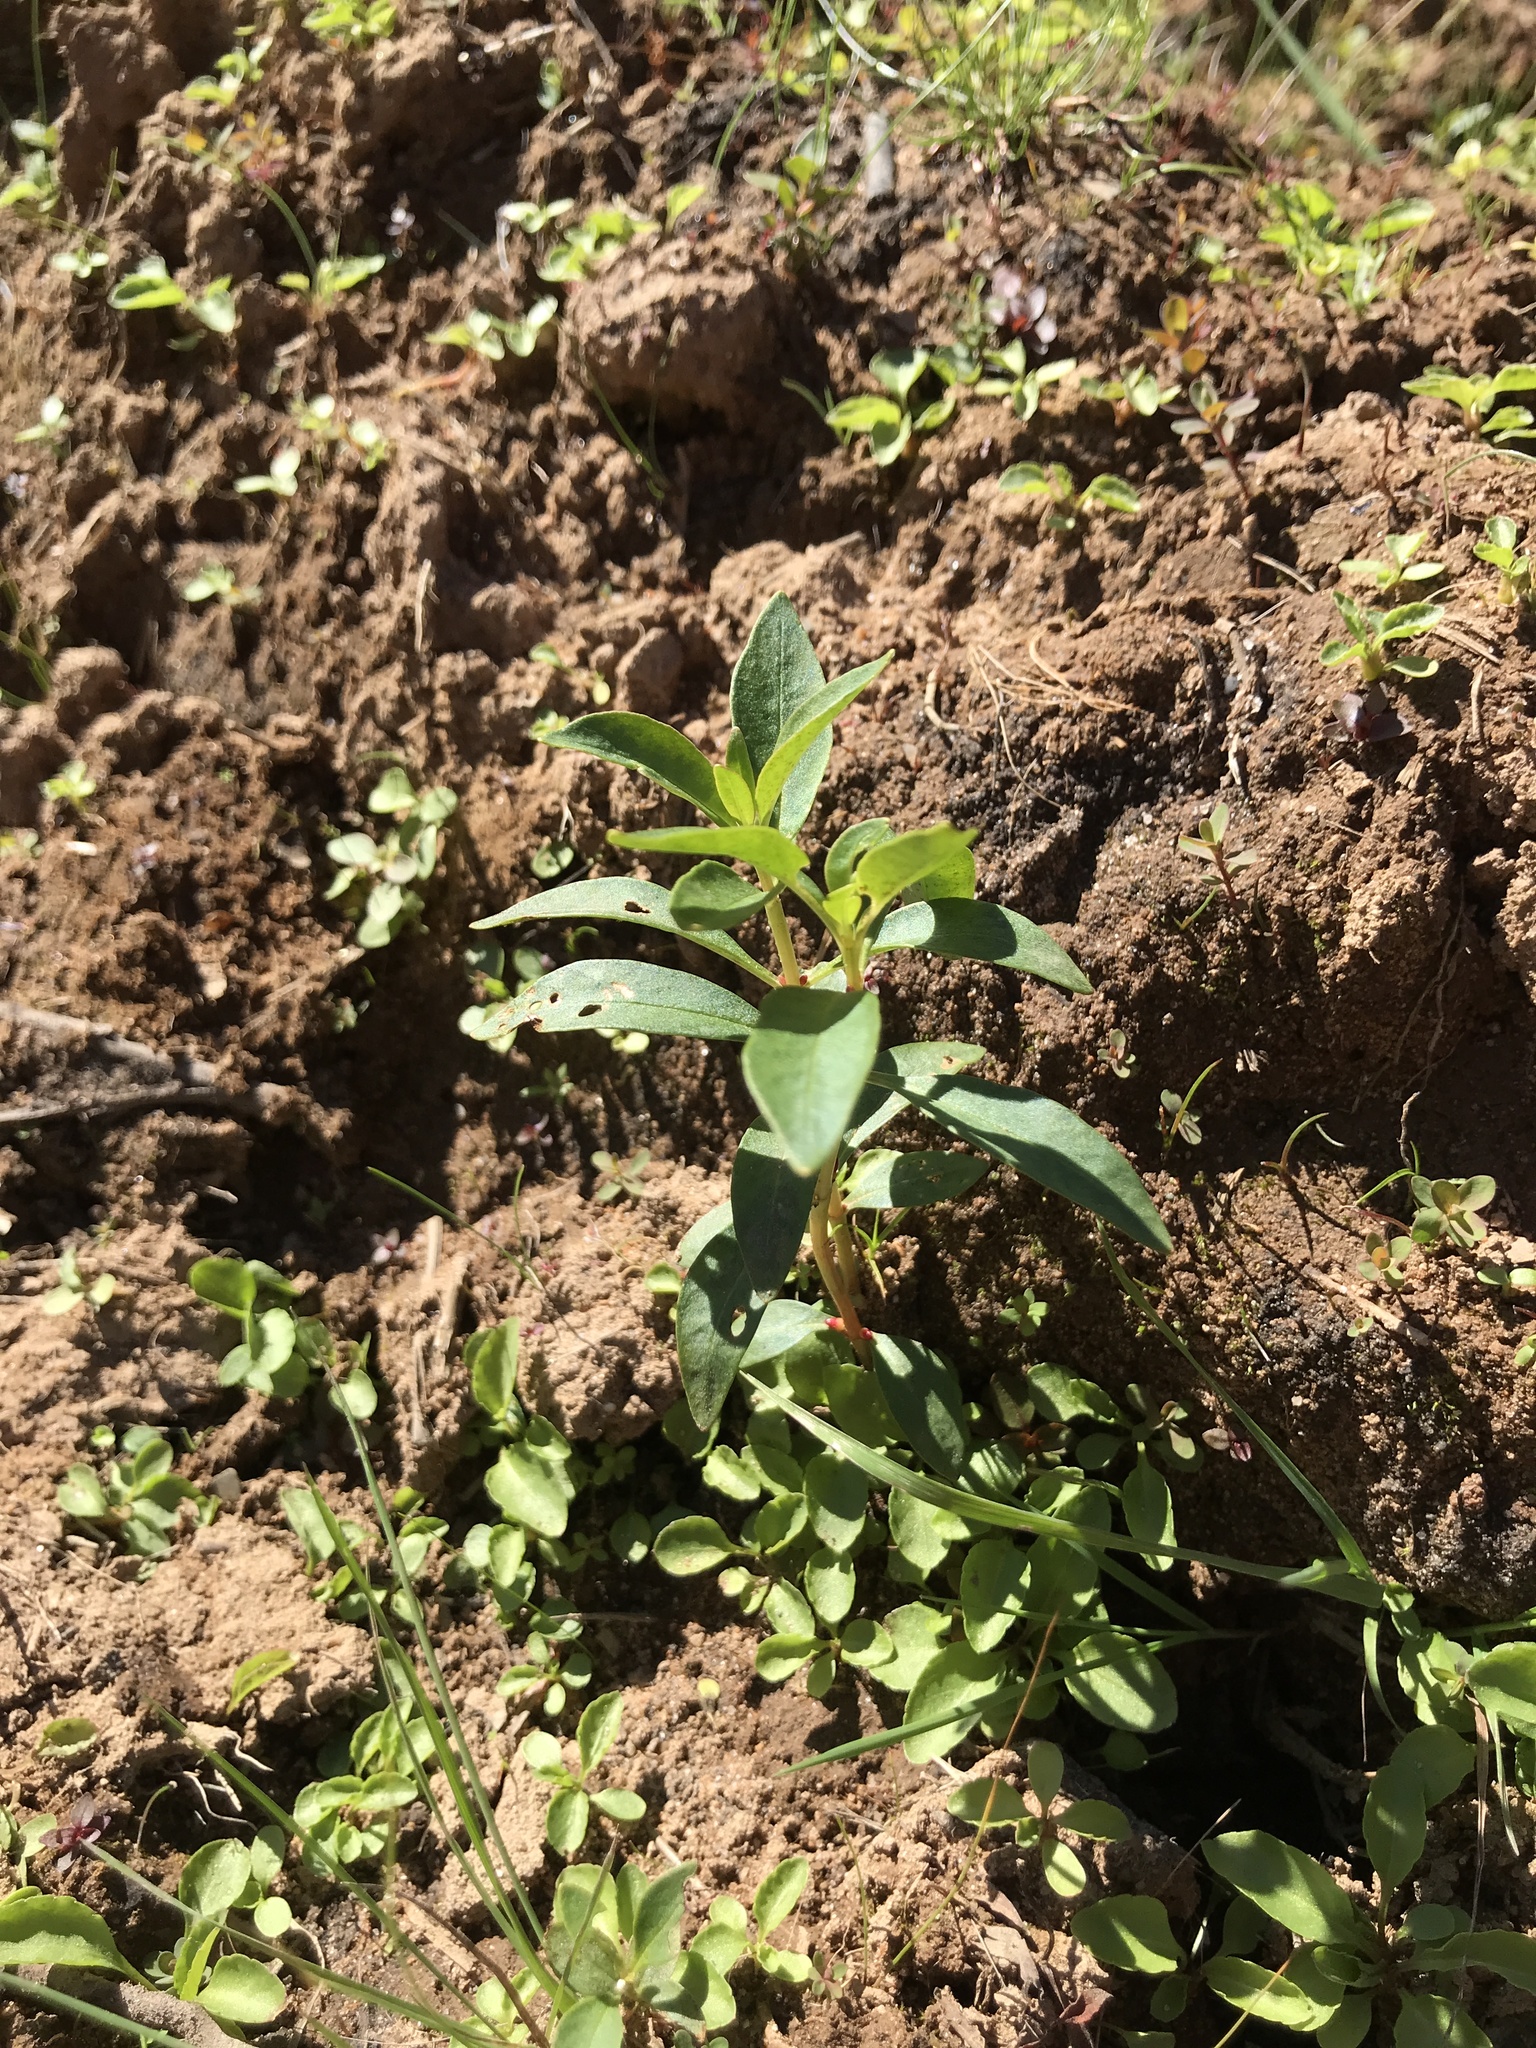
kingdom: Plantae
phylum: Tracheophyta
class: Magnoliopsida
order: Ericales
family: Primulaceae
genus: Lysimachia
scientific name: Lysimachia terrestris
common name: Lake loosestrife
